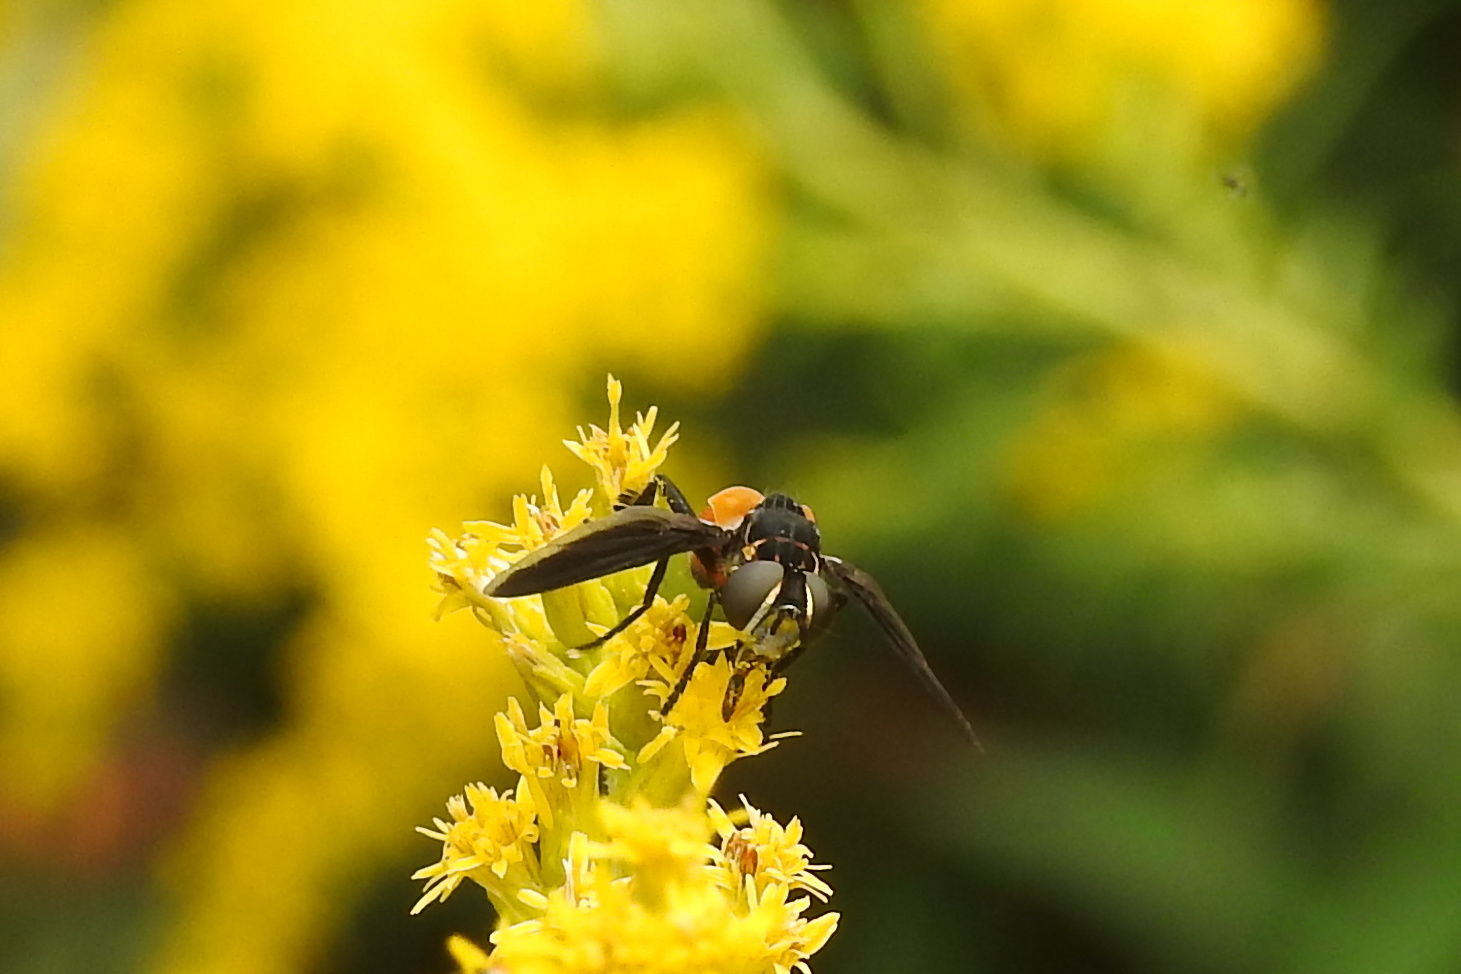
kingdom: Animalia
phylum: Arthropoda
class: Insecta
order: Diptera
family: Tachinidae
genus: Trichopoda
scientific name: Trichopoda pennipes
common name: Tachinid fly
